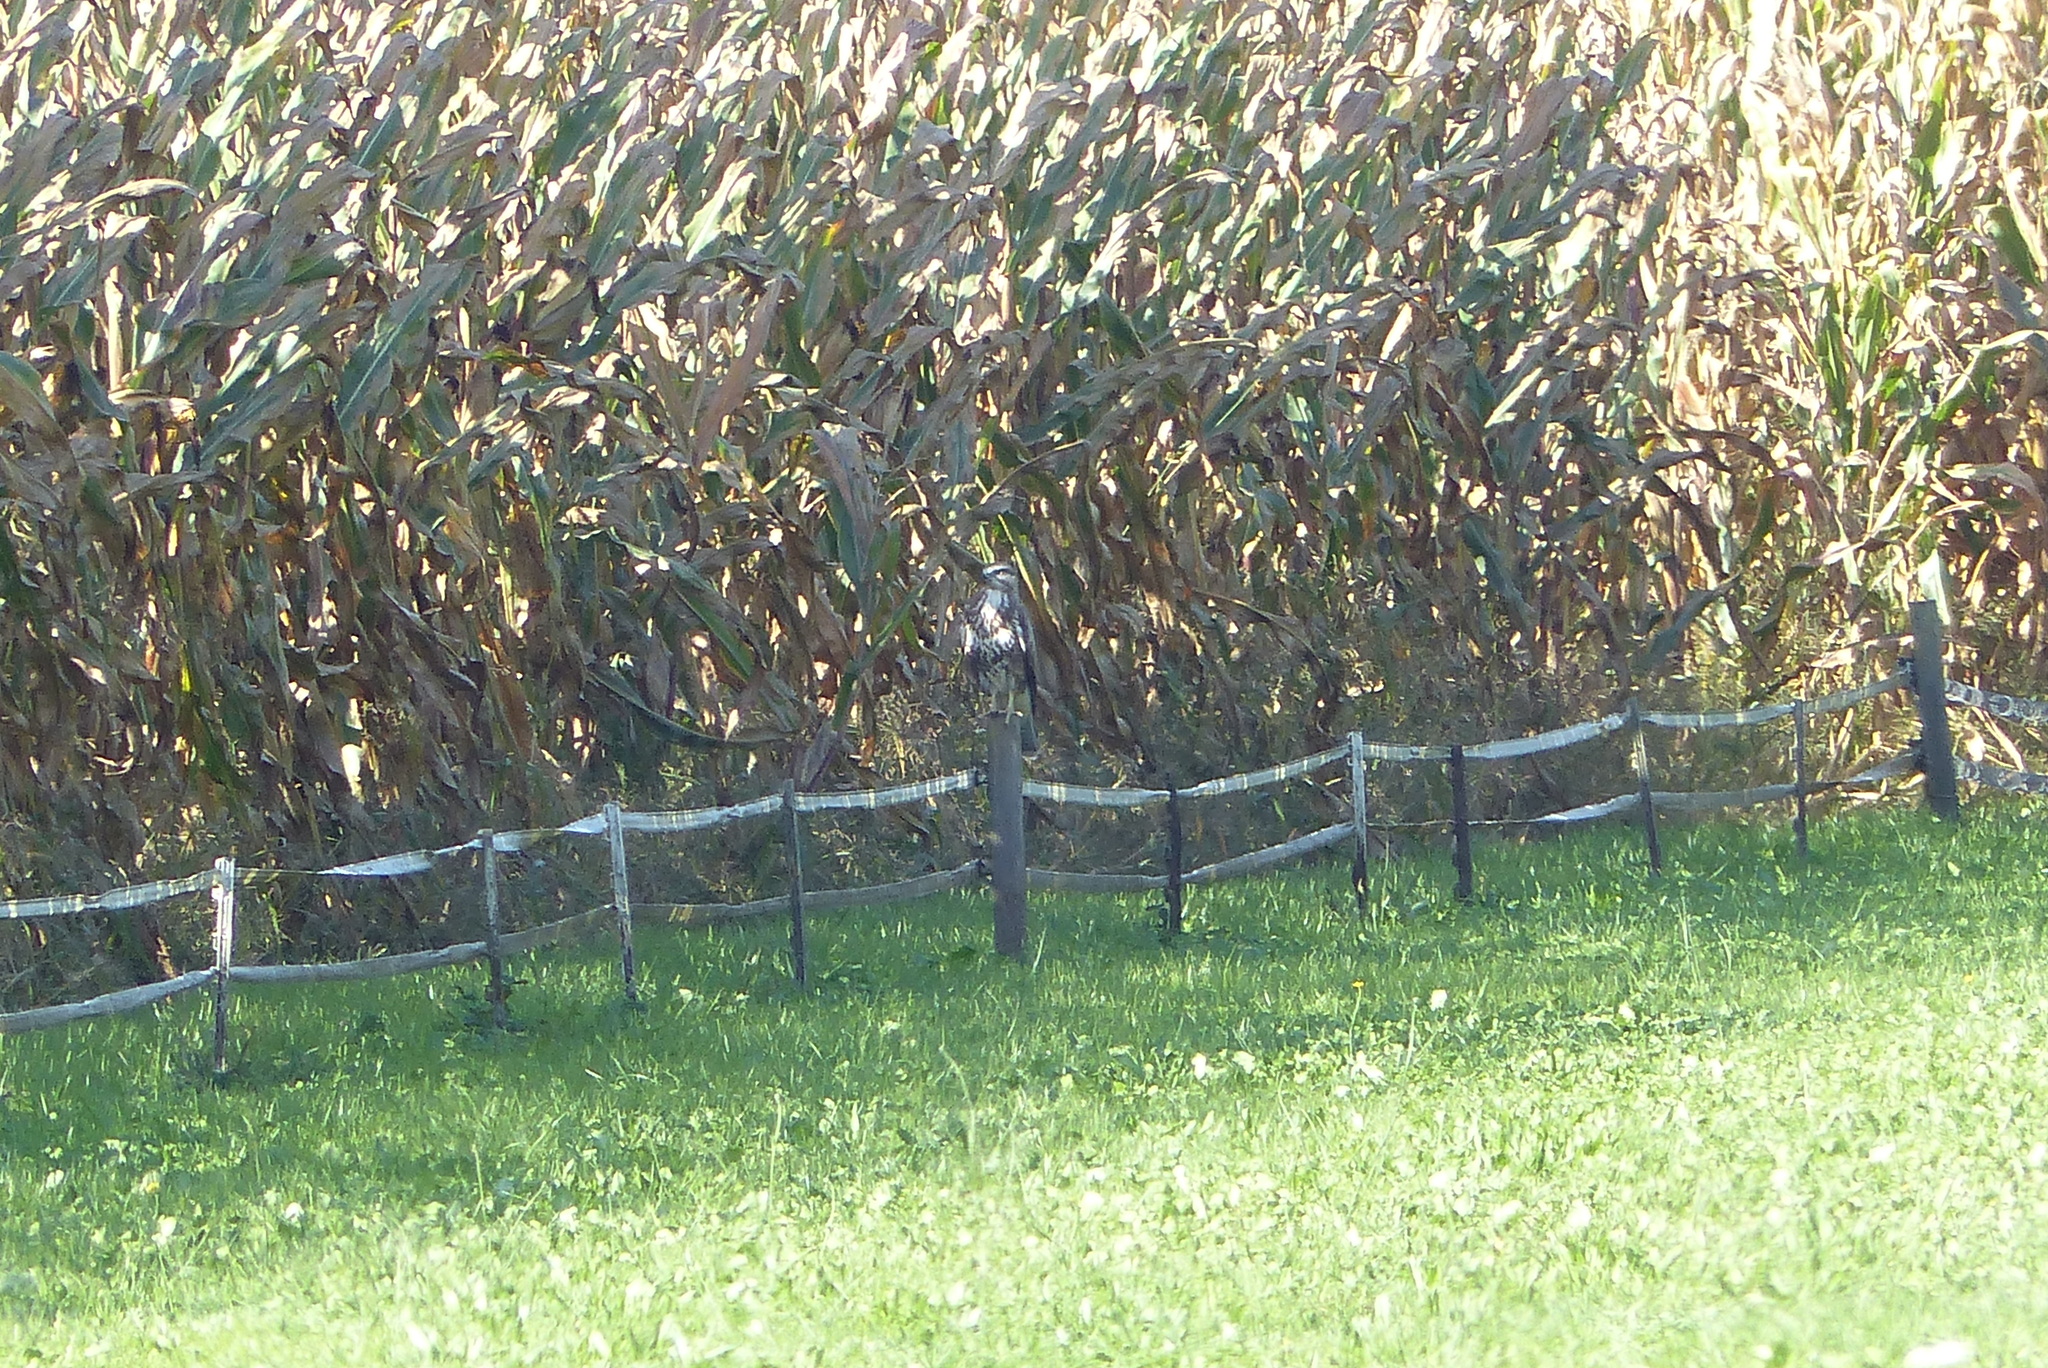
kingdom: Animalia
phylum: Chordata
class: Aves
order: Accipitriformes
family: Accipitridae
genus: Buteo
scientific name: Buteo buteo
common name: Common buzzard
